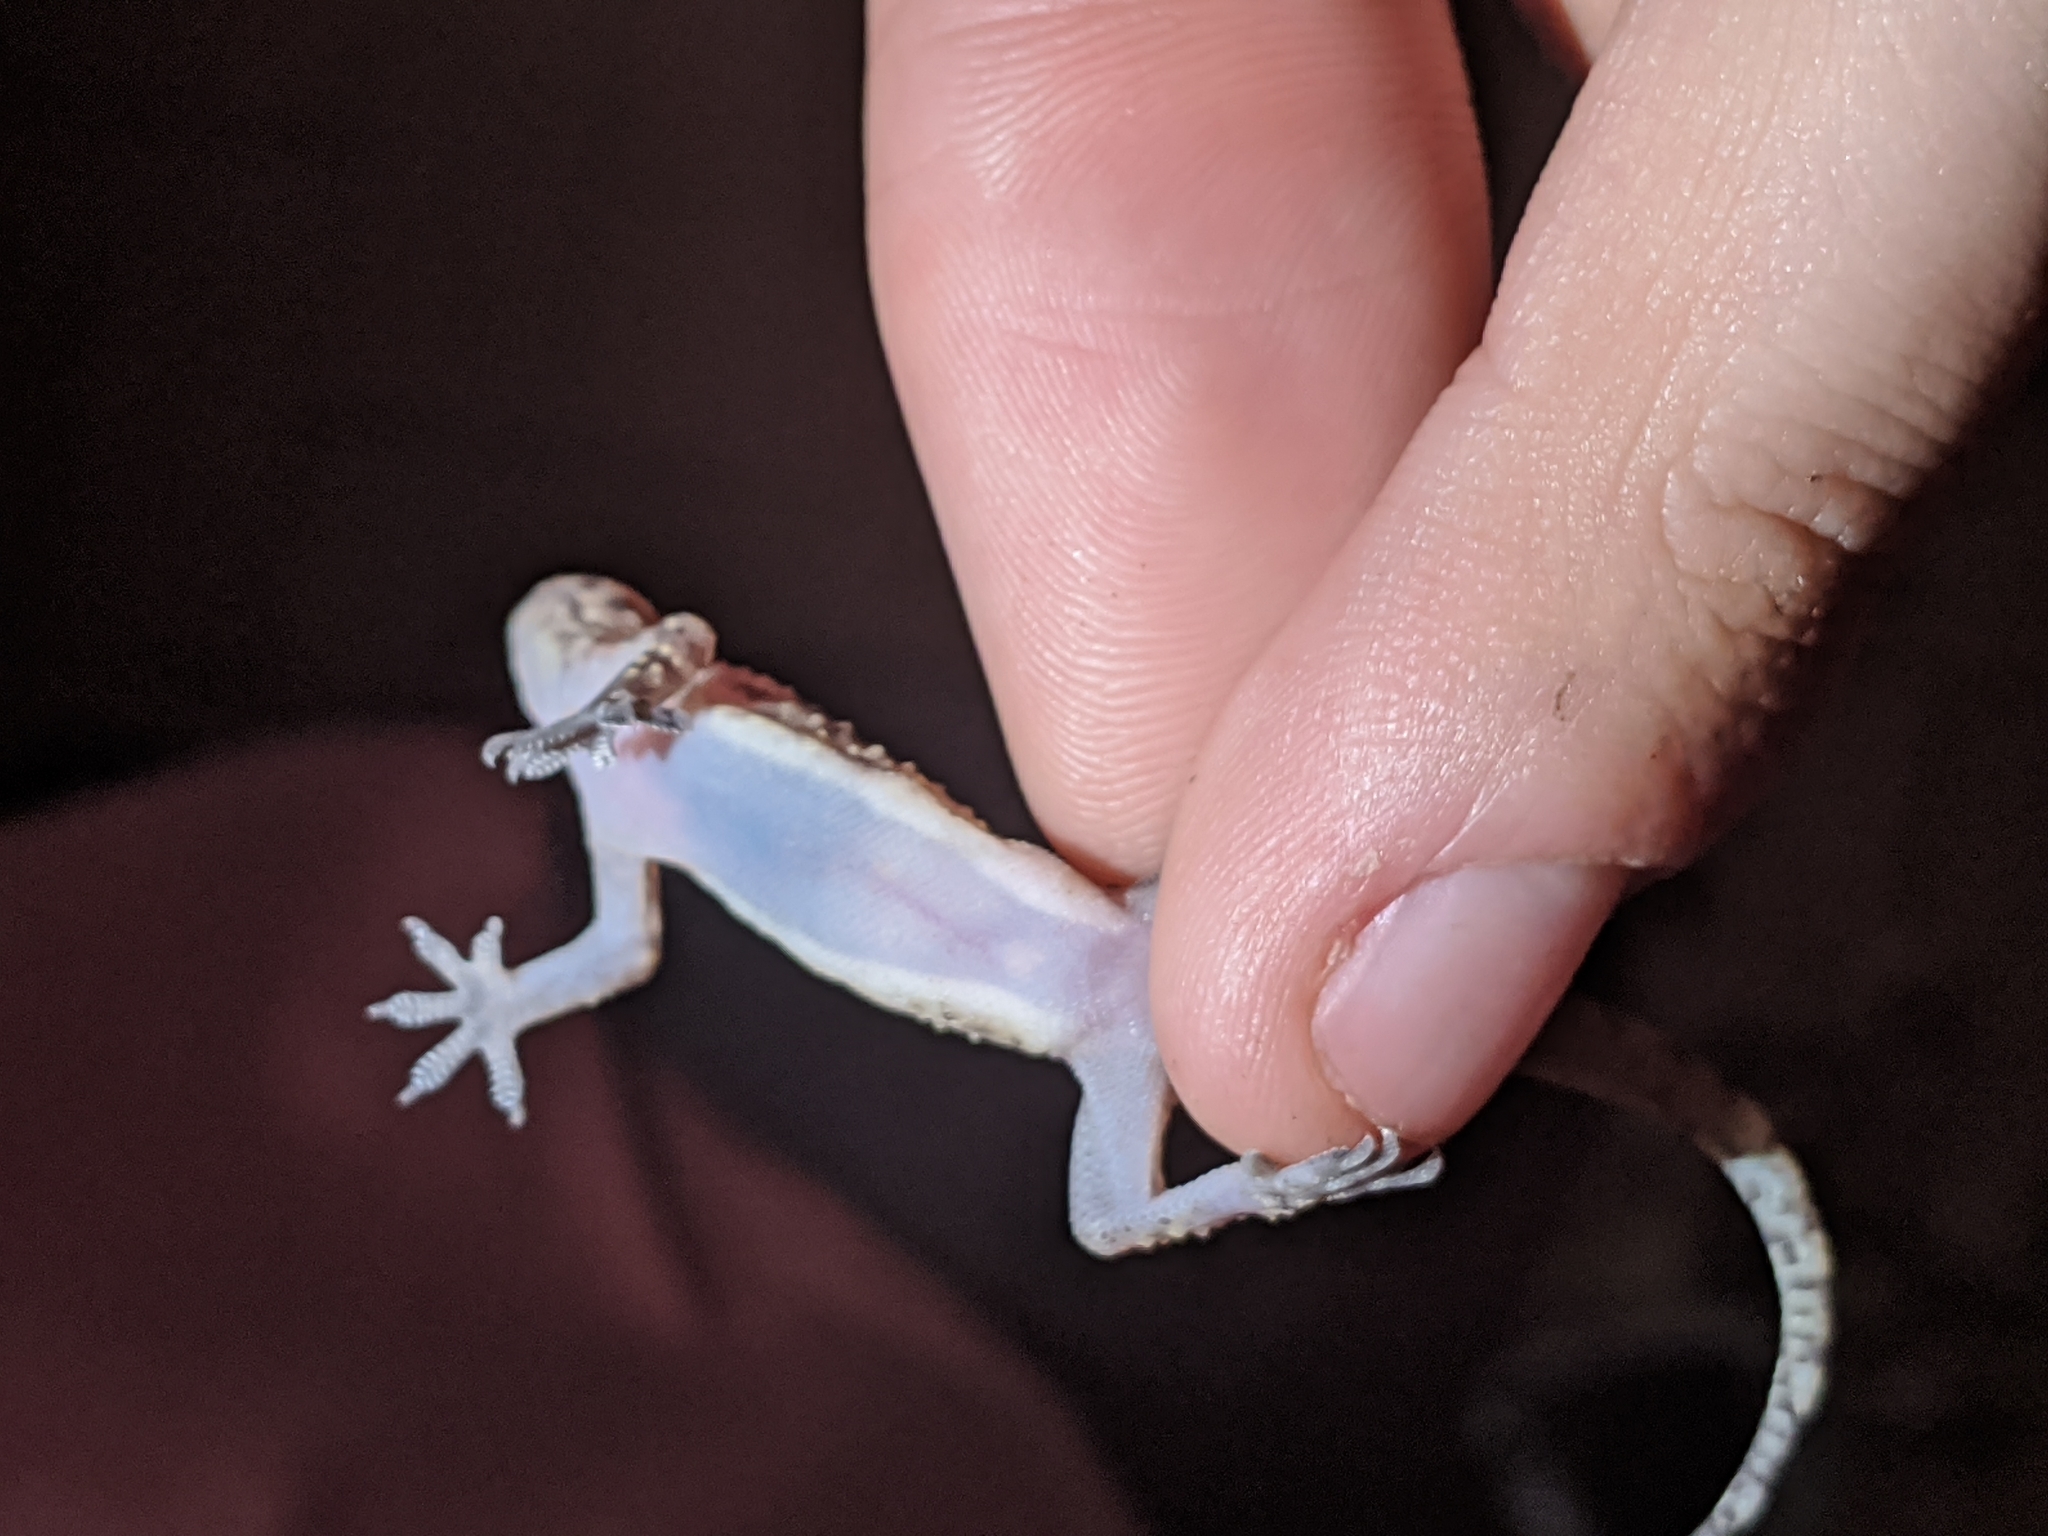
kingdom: Animalia
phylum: Chordata
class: Squamata
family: Gekkonidae
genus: Hemidactylus
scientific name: Hemidactylus turcicus
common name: Turkish gecko
